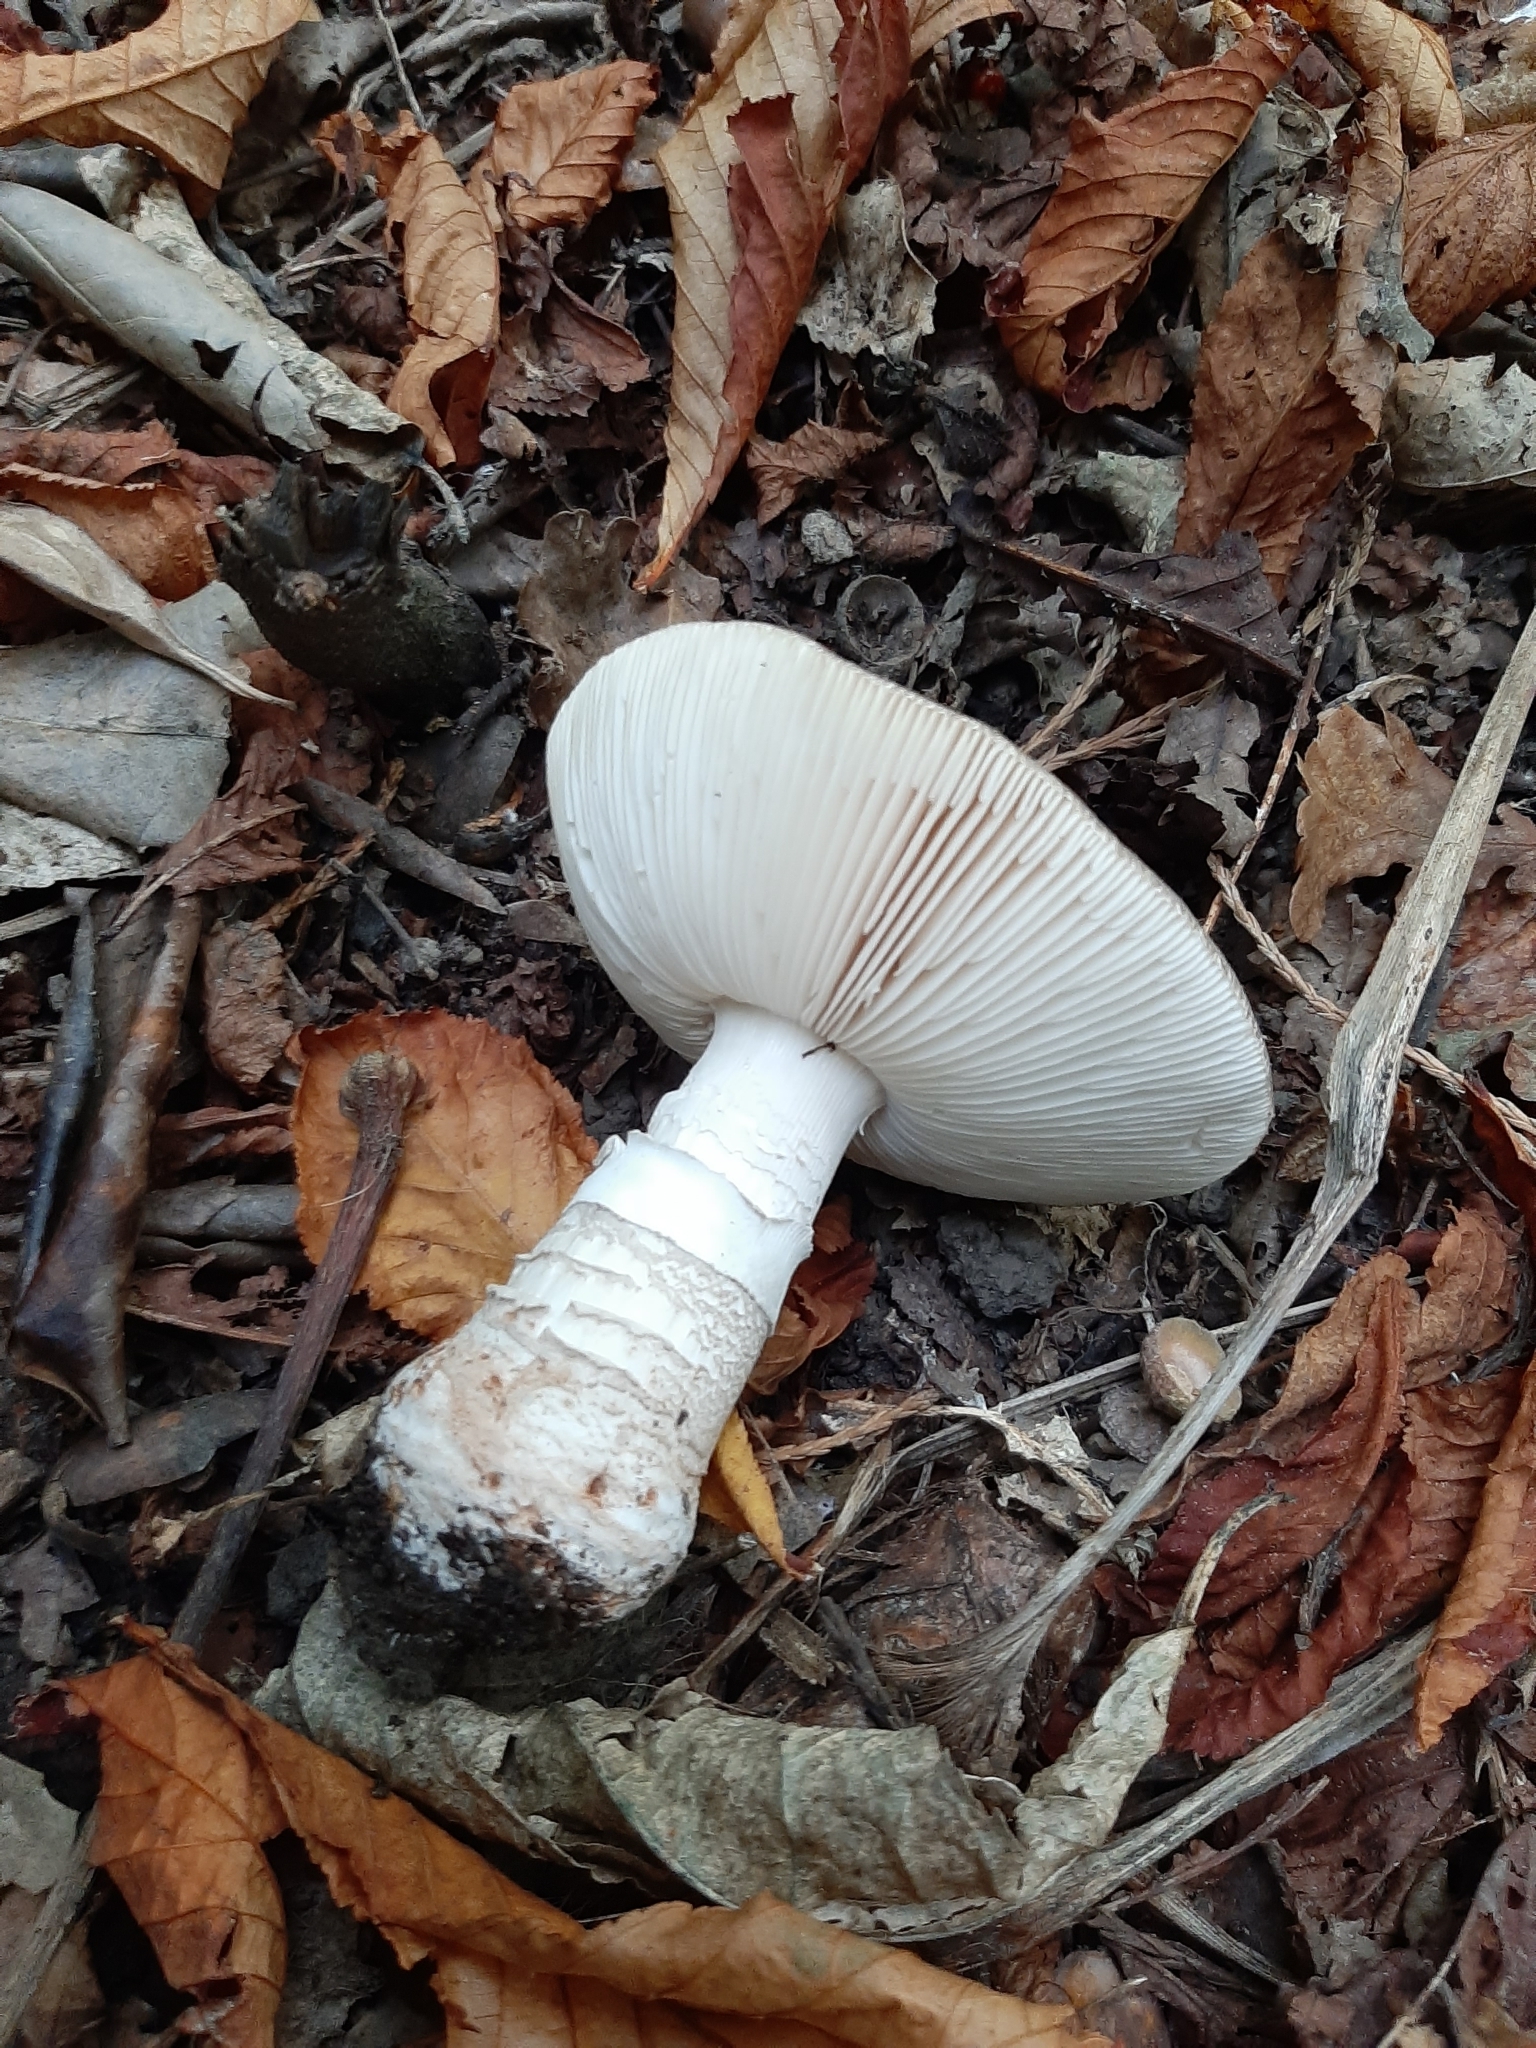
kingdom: Fungi
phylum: Basidiomycota
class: Agaricomycetes
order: Agaricales
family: Amanitaceae
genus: Amanita
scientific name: Amanita excelsa
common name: European false blusher
